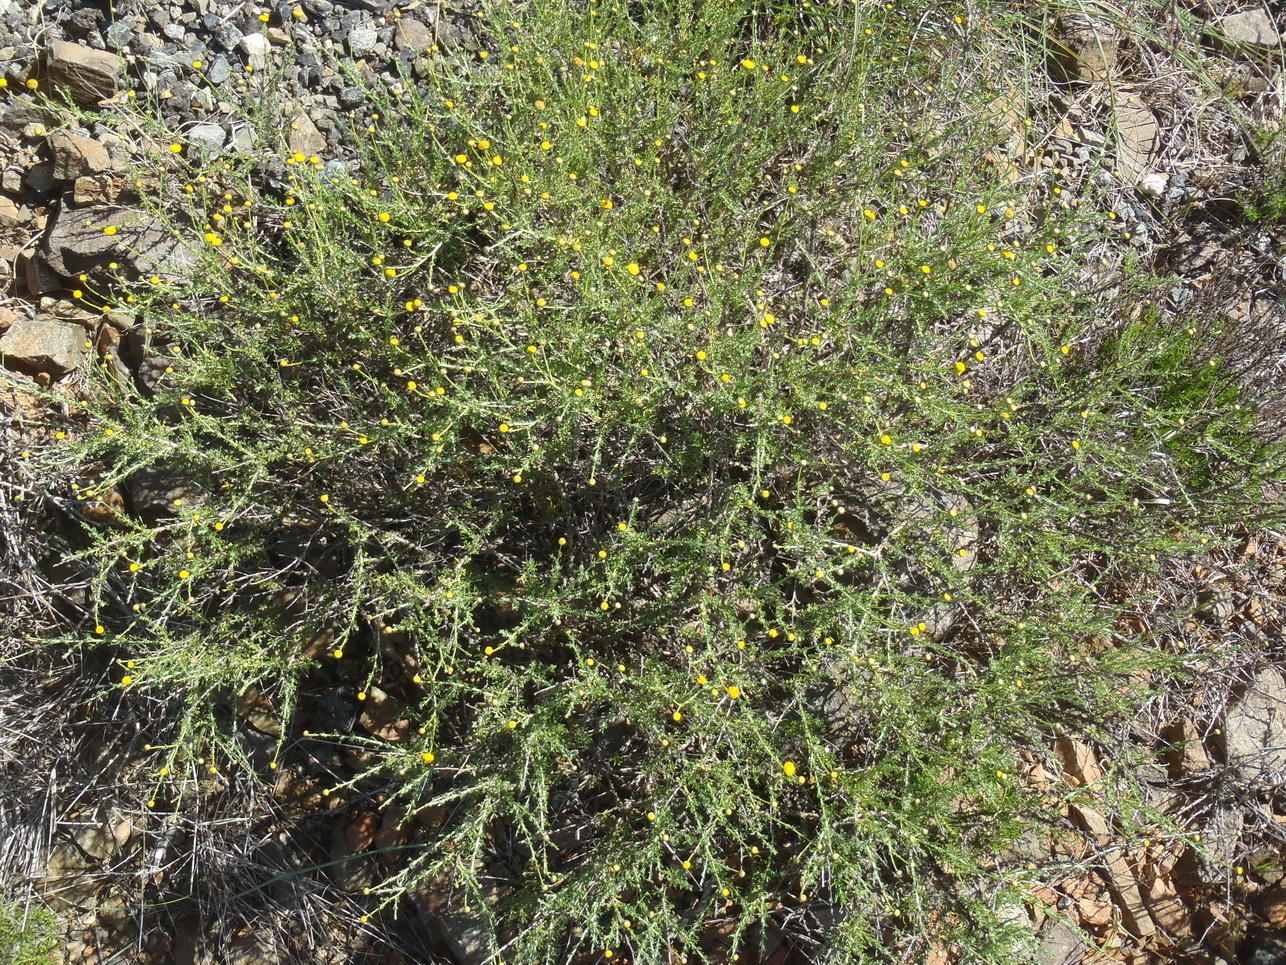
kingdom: Plantae
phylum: Tracheophyta
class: Magnoliopsida
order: Asterales
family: Asteraceae
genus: Pentzia
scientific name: Pentzia sphaerocephala
